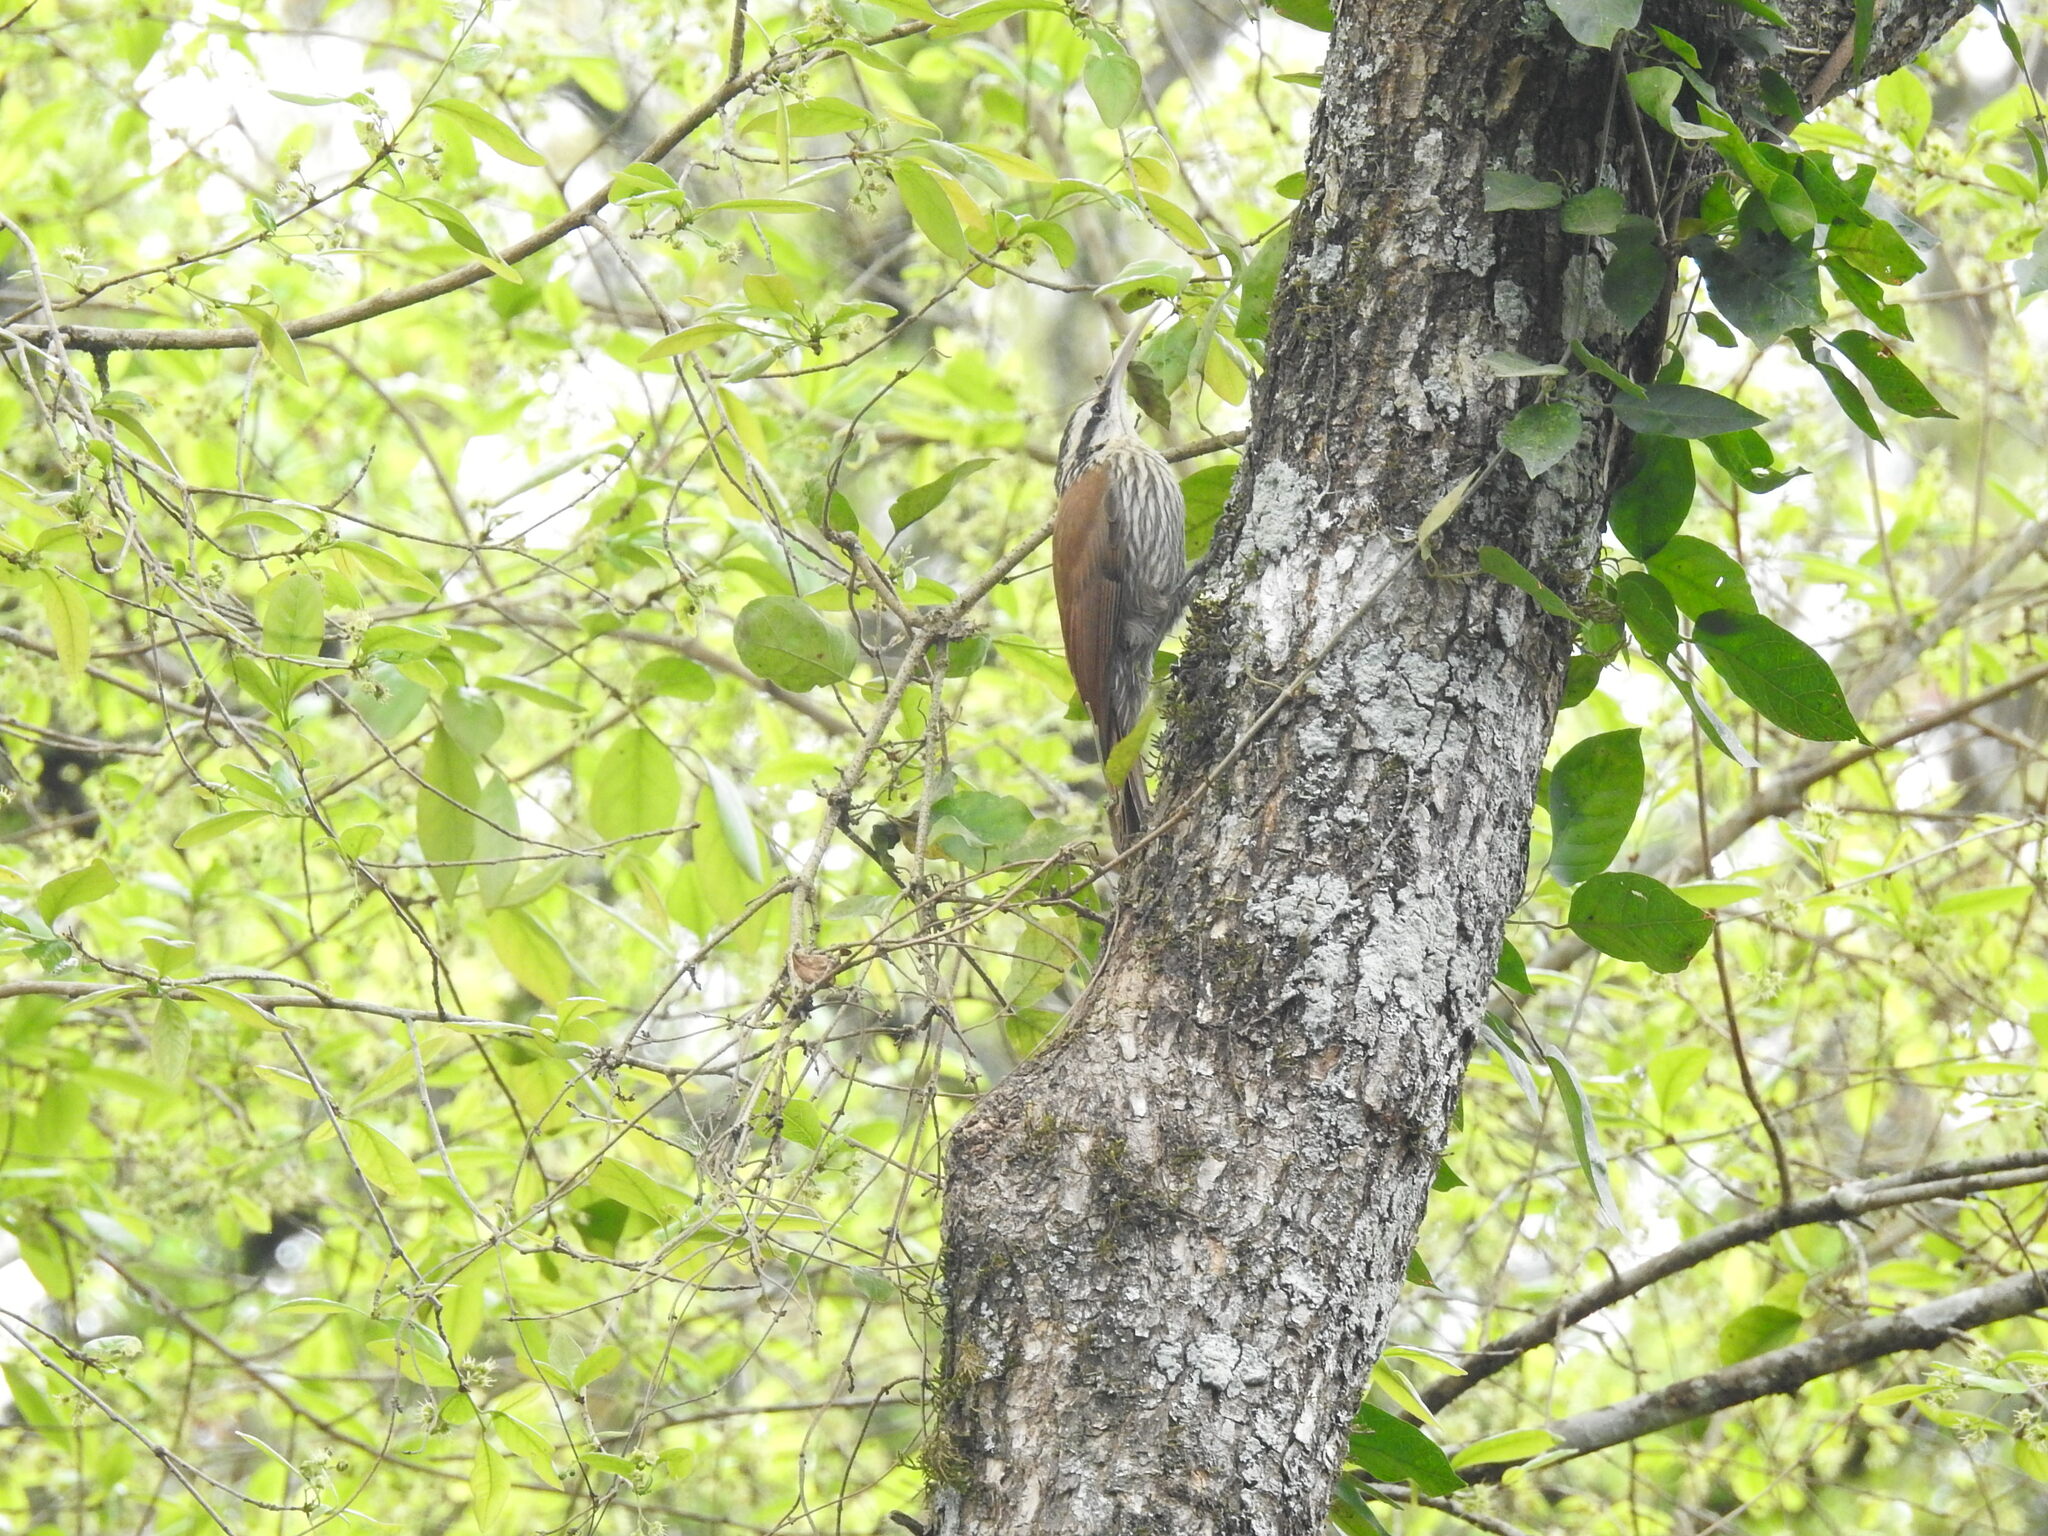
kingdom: Animalia
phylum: Chordata
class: Aves
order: Passeriformes
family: Furnariidae
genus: Lepidocolaptes
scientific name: Lepidocolaptes angustirostris
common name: Narrow-billed woodcreeper
